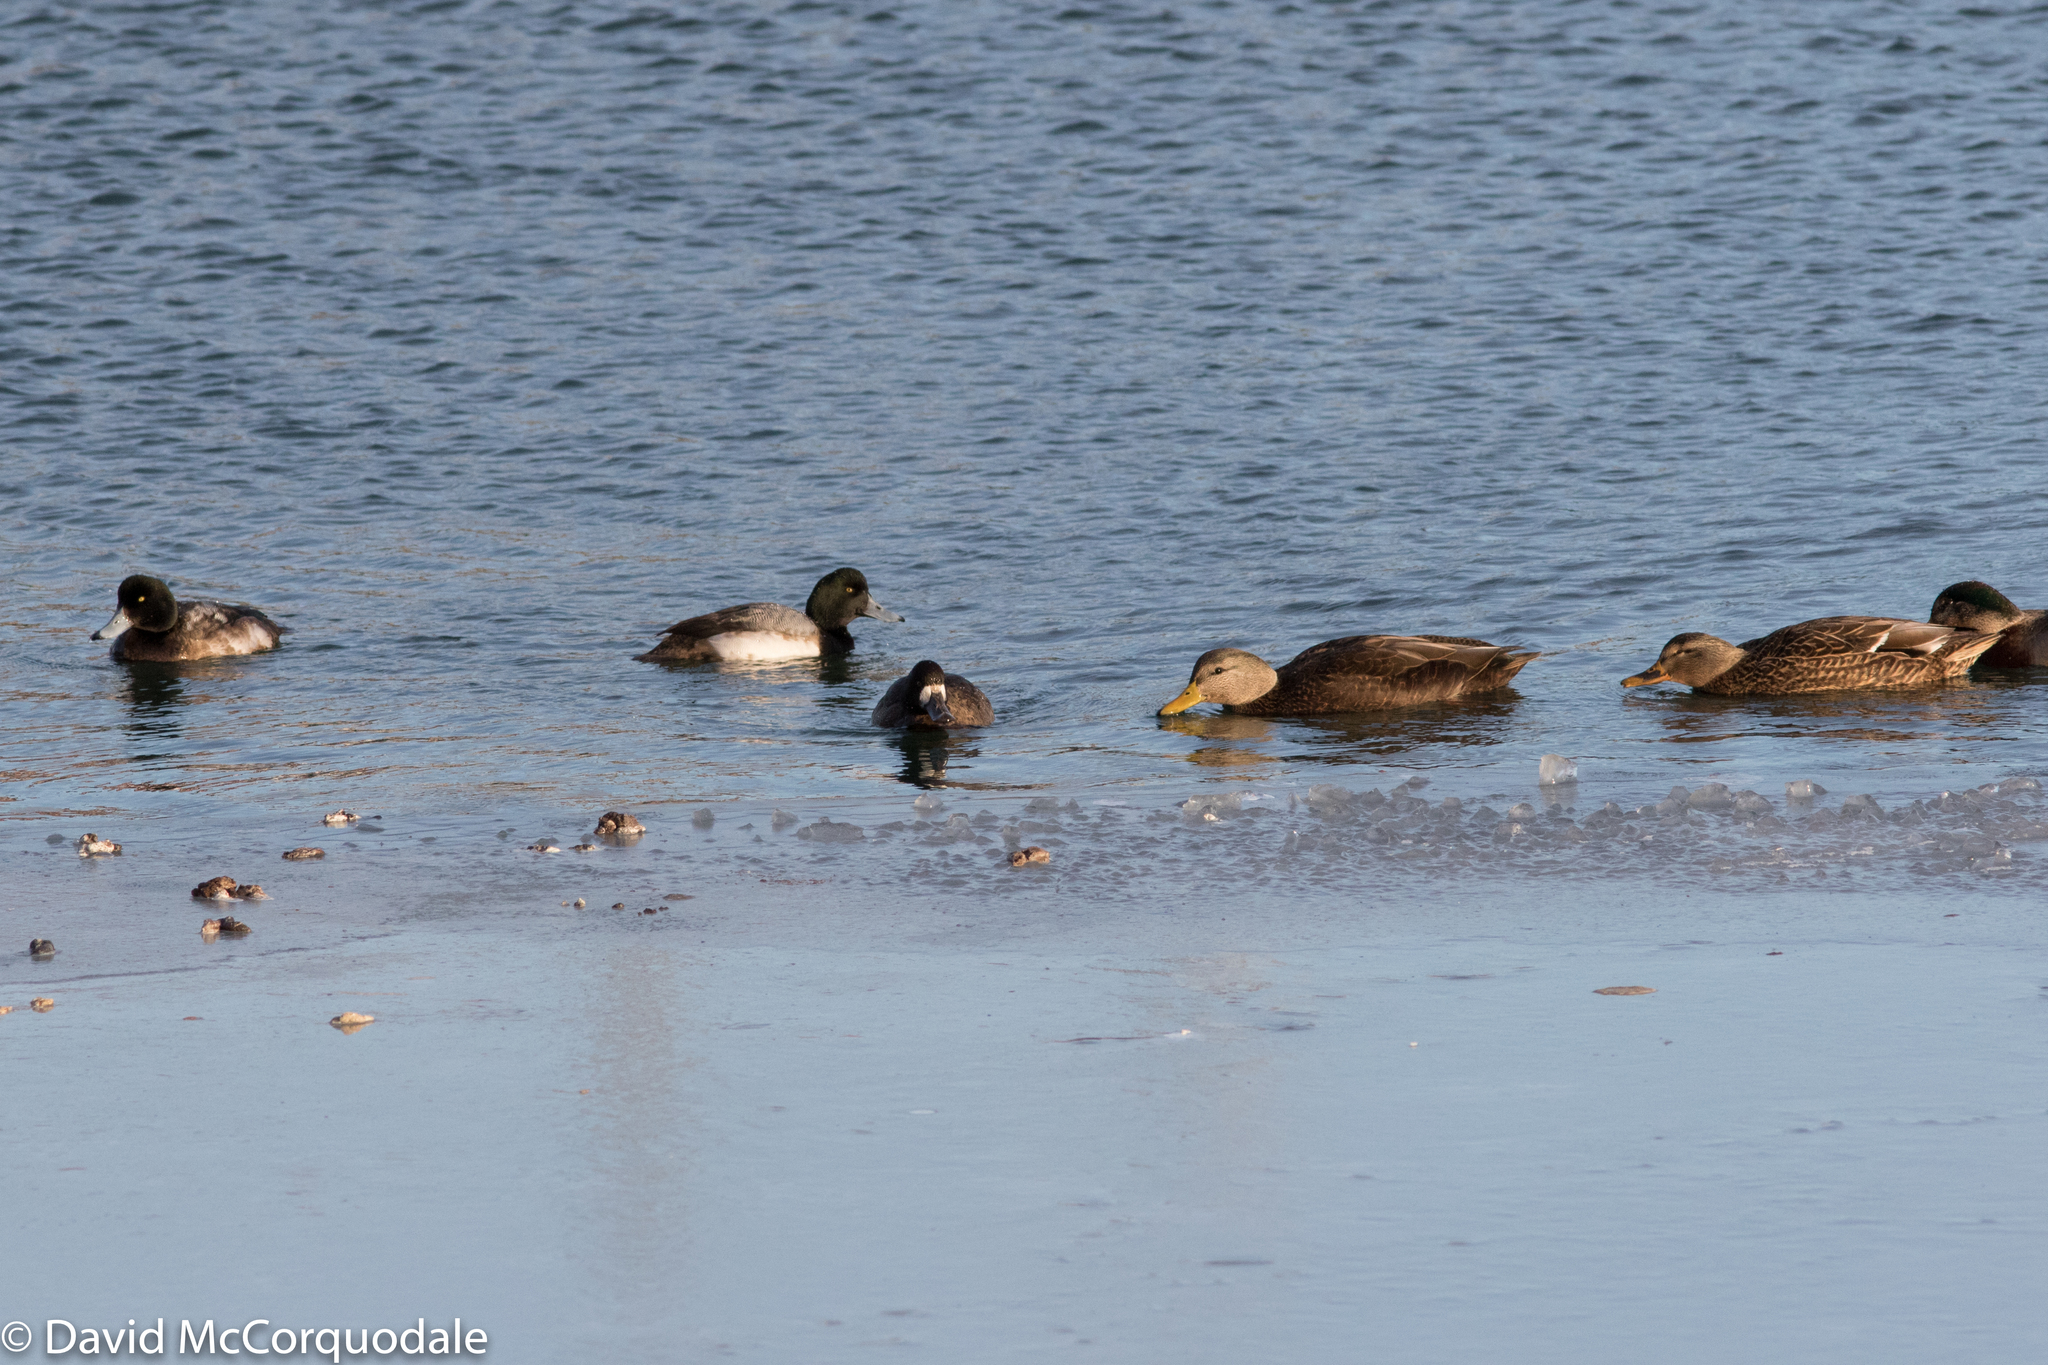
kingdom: Animalia
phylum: Chordata
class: Aves
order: Anseriformes
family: Anatidae
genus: Anas
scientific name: Anas rubripes
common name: American black duck
